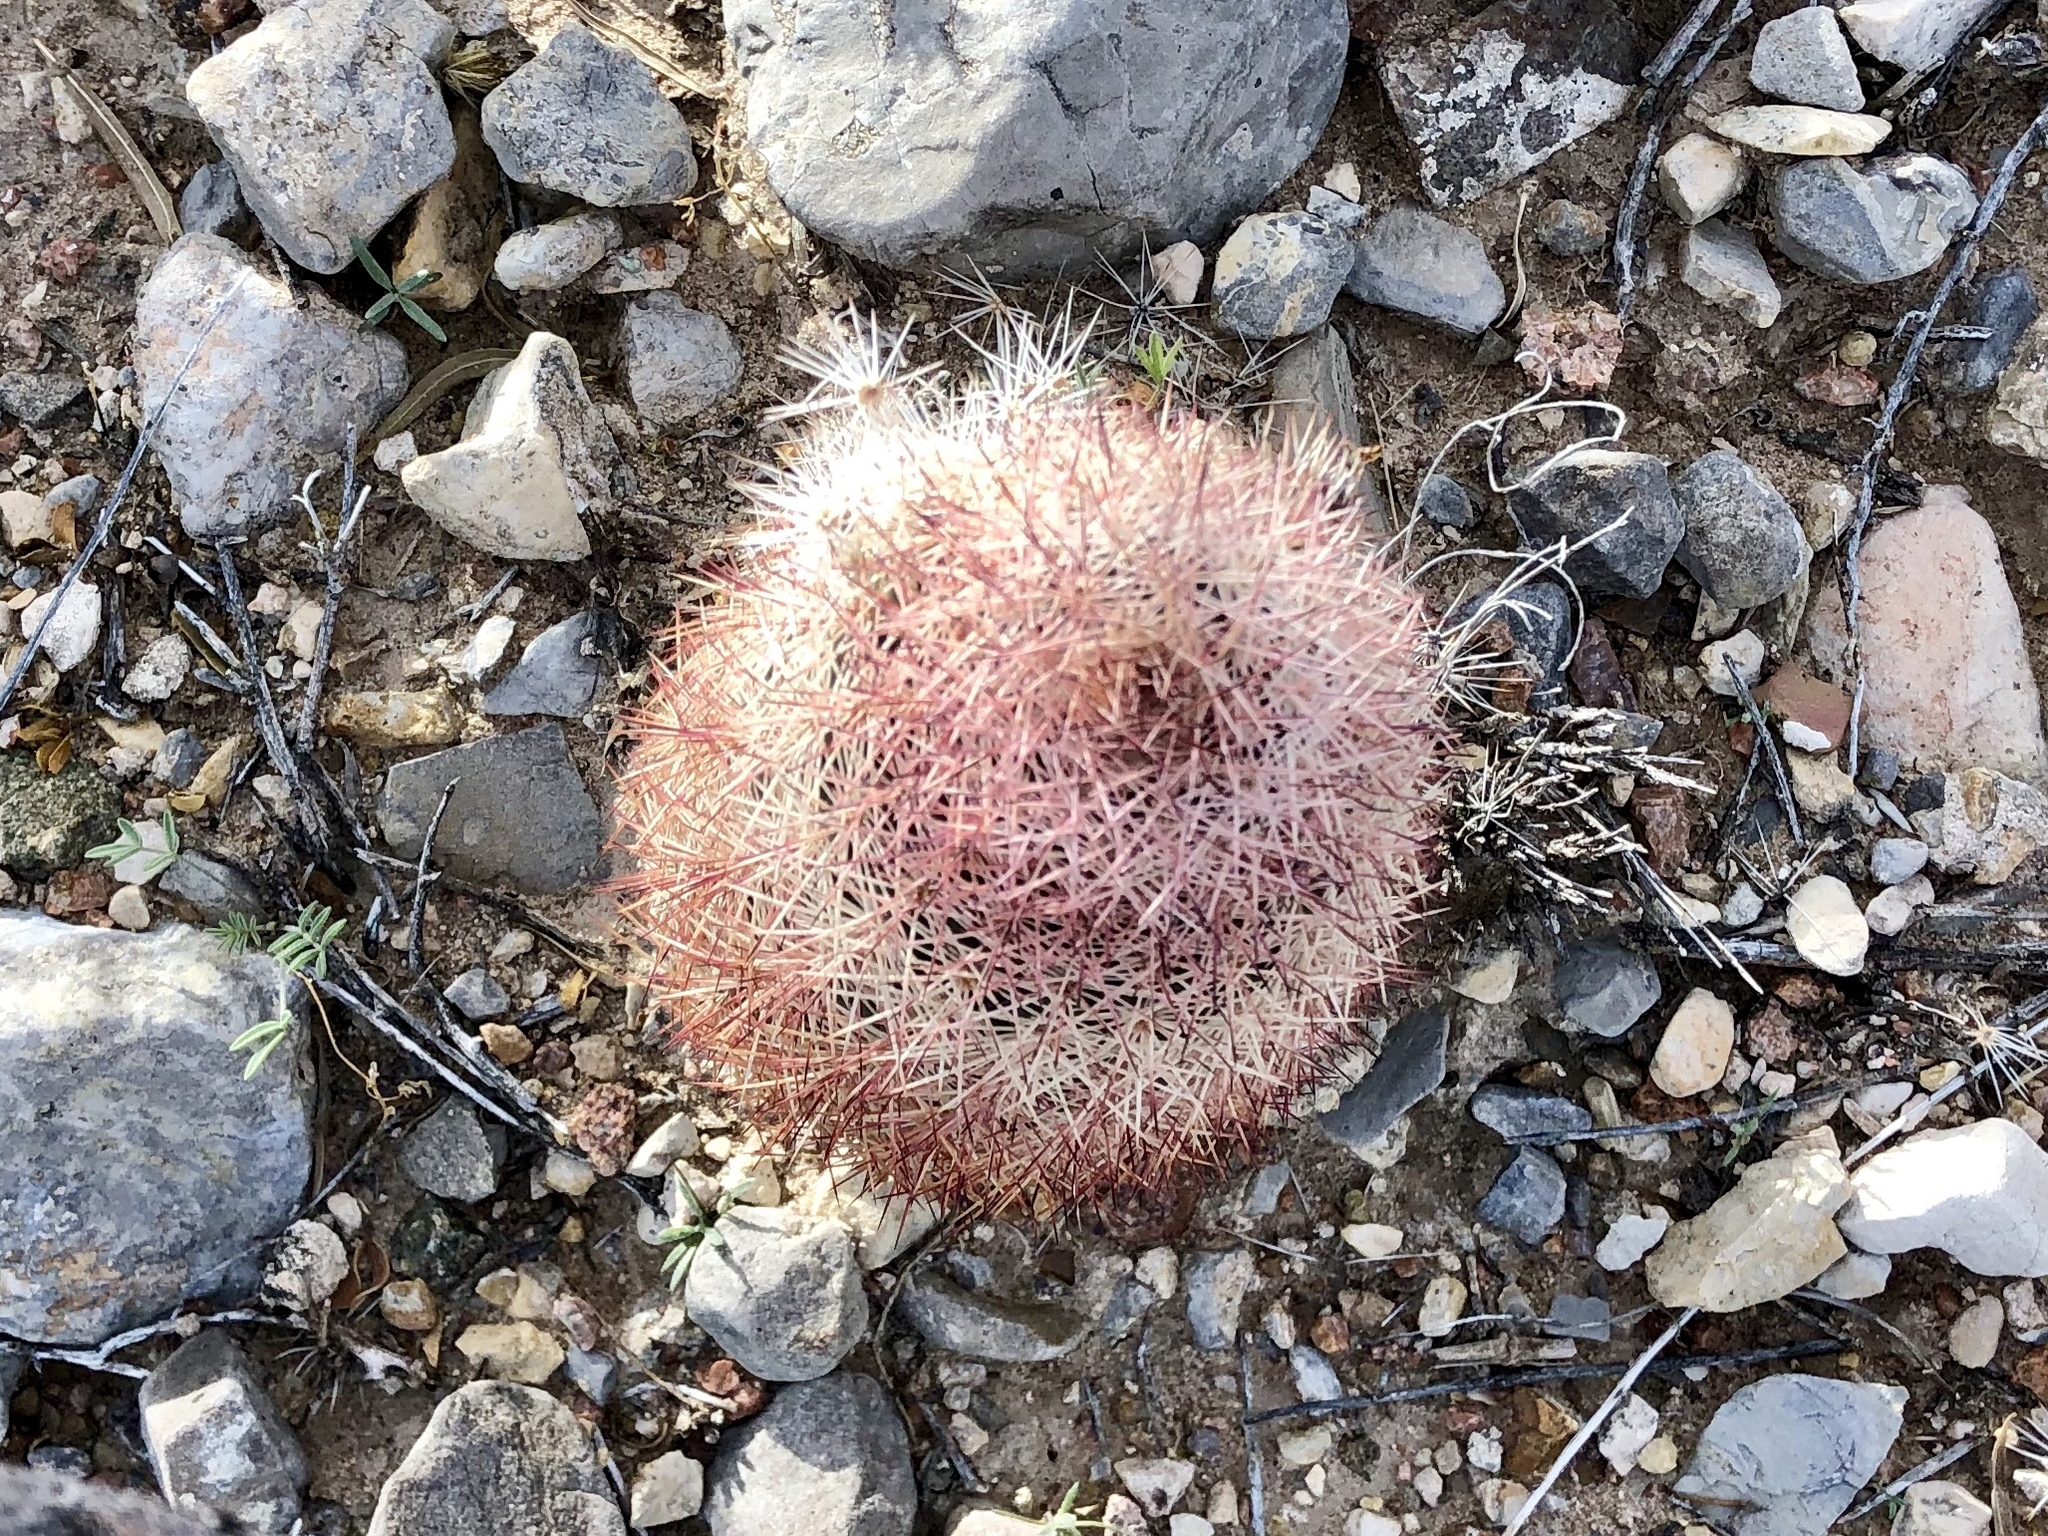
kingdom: Plantae
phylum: Tracheophyta
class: Magnoliopsida
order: Caryophyllales
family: Cactaceae
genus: Echinocereus
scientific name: Echinocereus dasyacanthus
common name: Spiny hedgehog cactus
